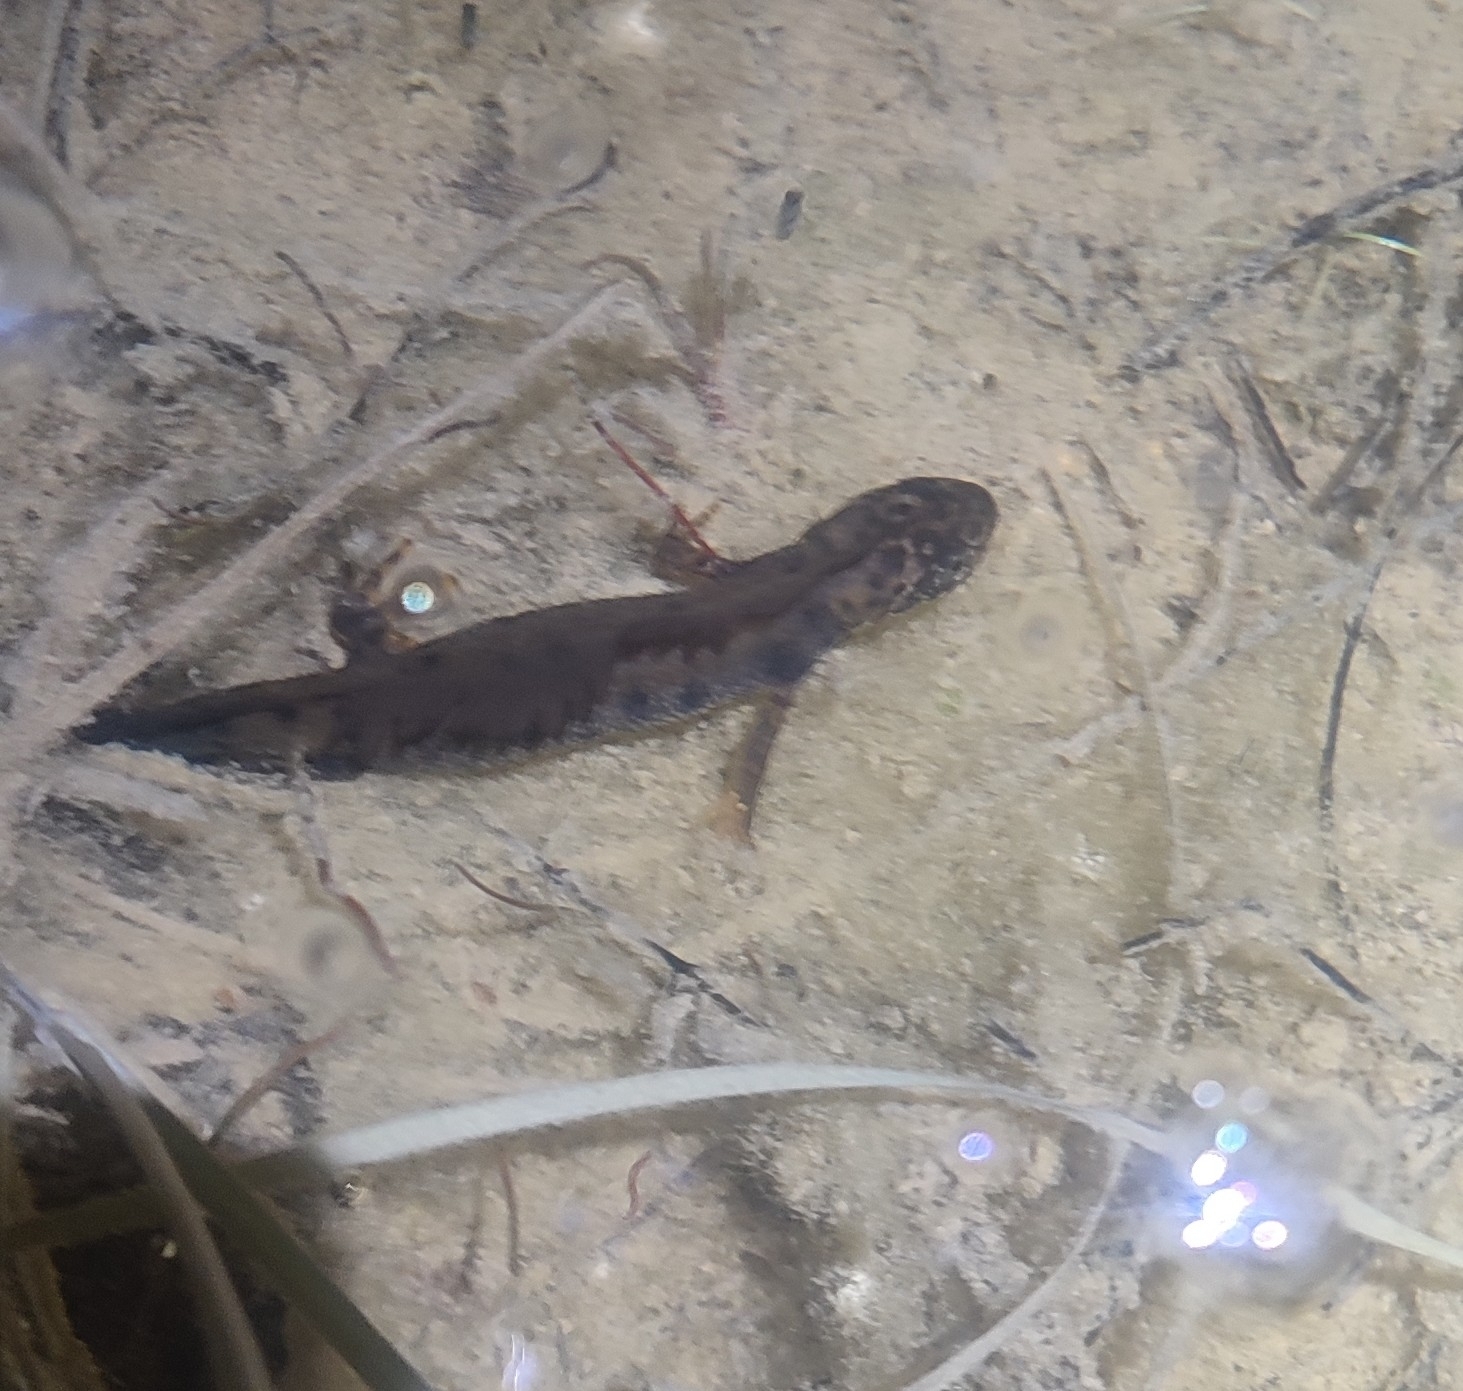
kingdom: Animalia
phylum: Chordata
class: Amphibia
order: Caudata
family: Salamandridae
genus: Triturus
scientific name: Triturus cristatus
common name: Crested newt
